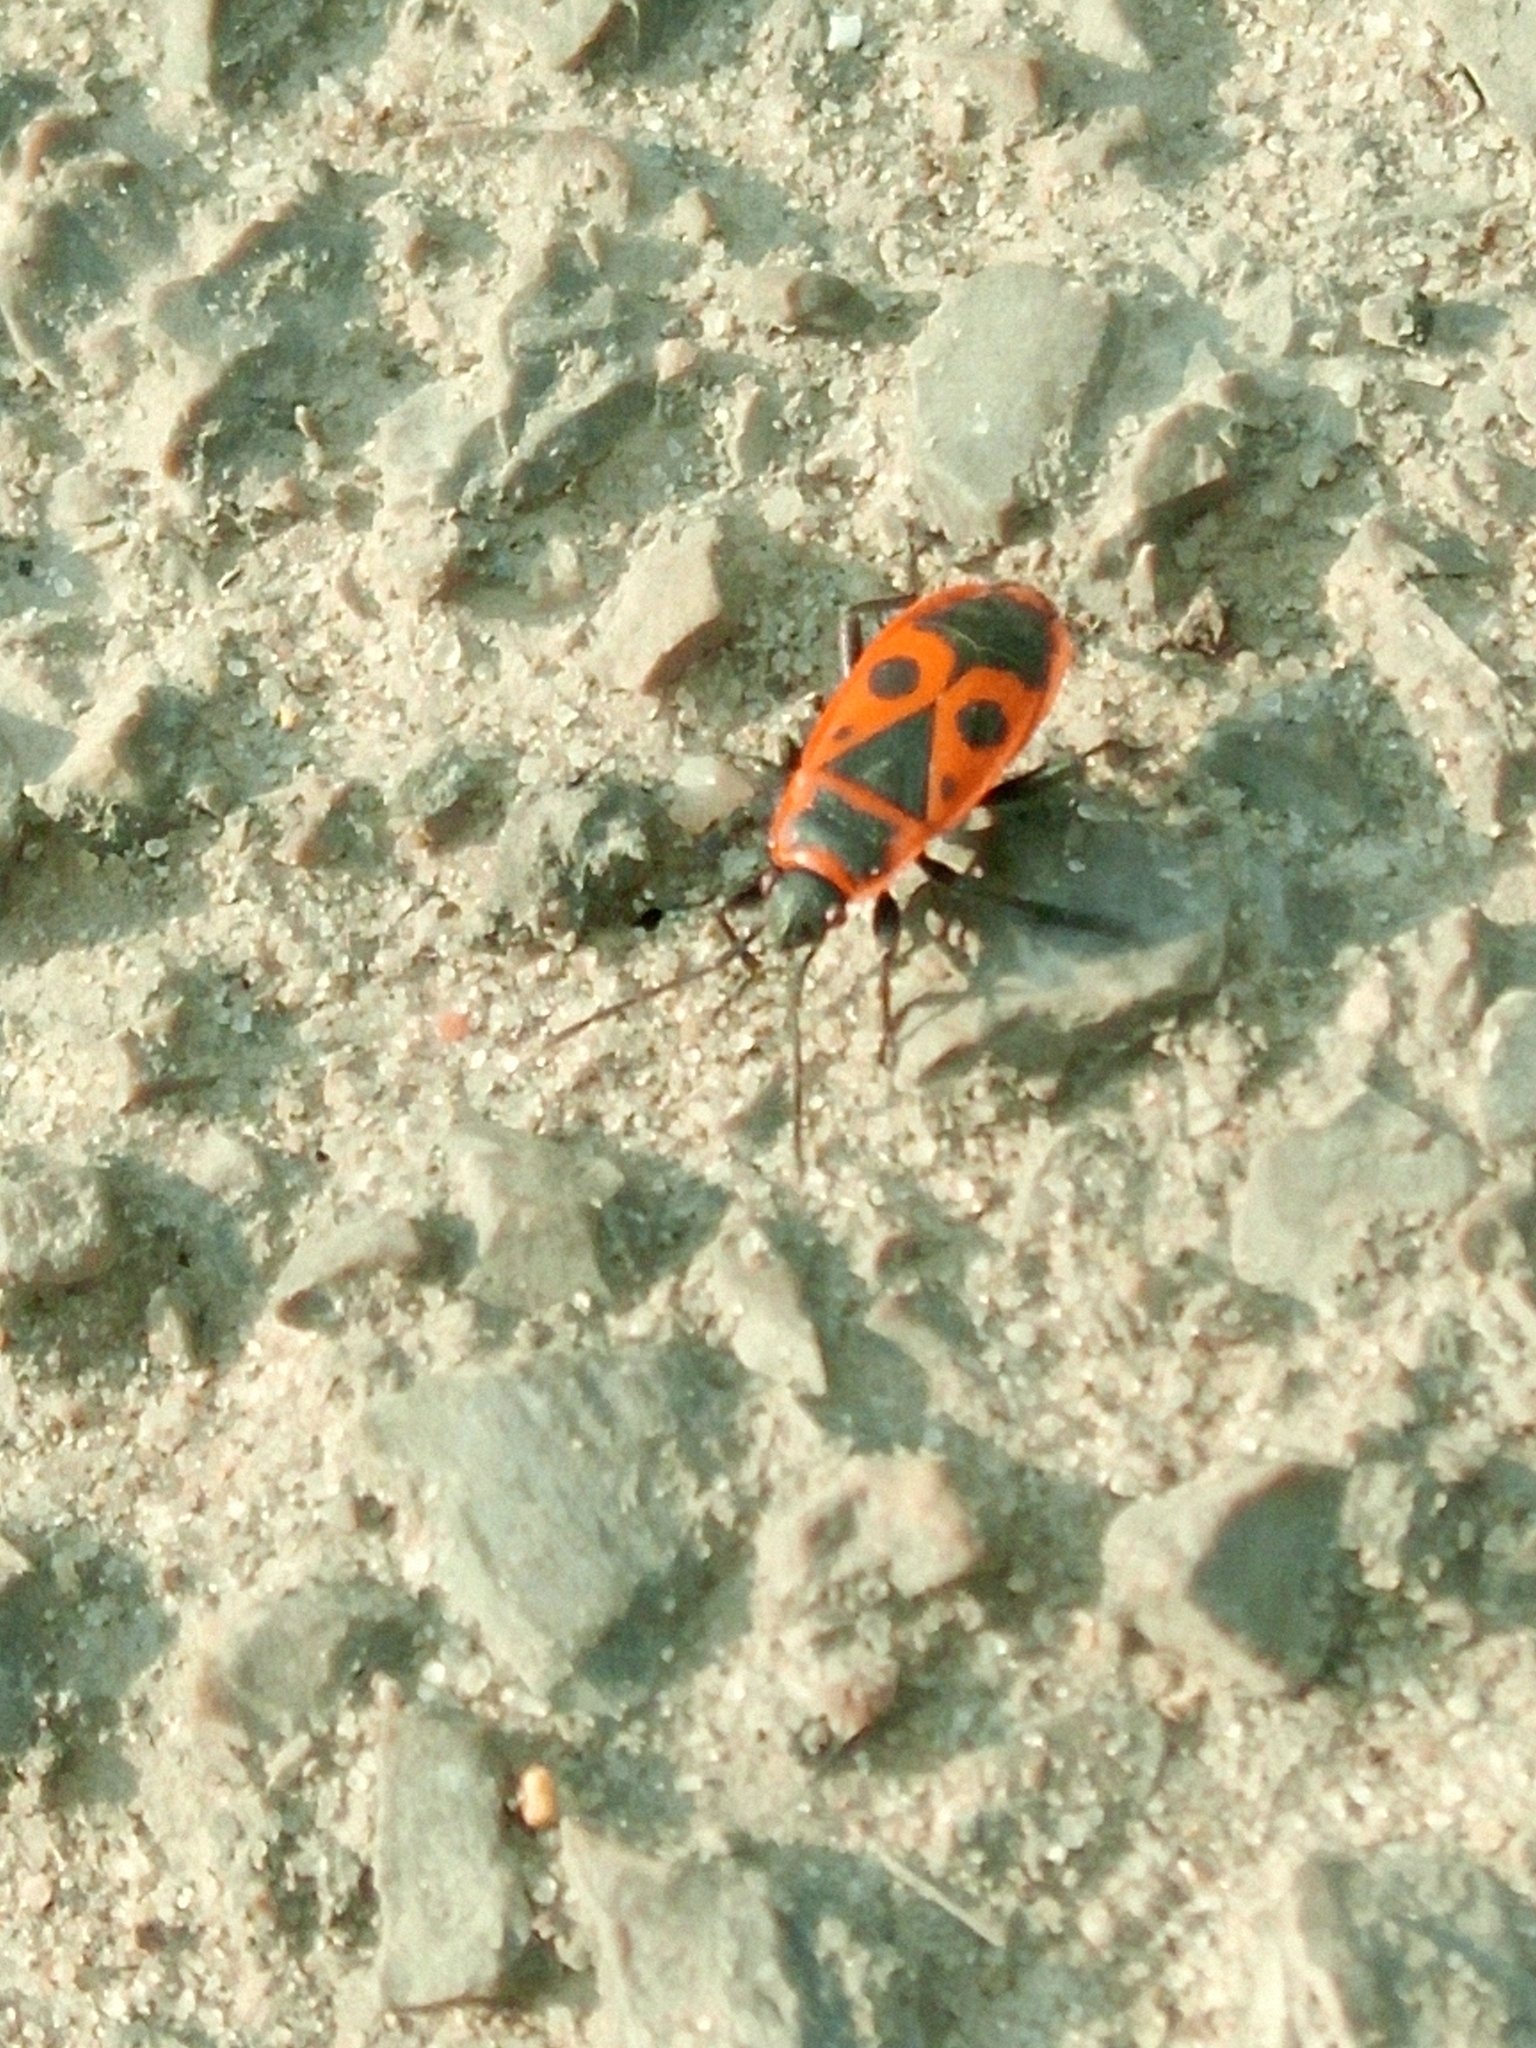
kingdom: Animalia
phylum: Arthropoda
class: Insecta
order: Hemiptera
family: Pyrrhocoridae
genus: Pyrrhocoris
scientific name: Pyrrhocoris apterus
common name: Firebug
